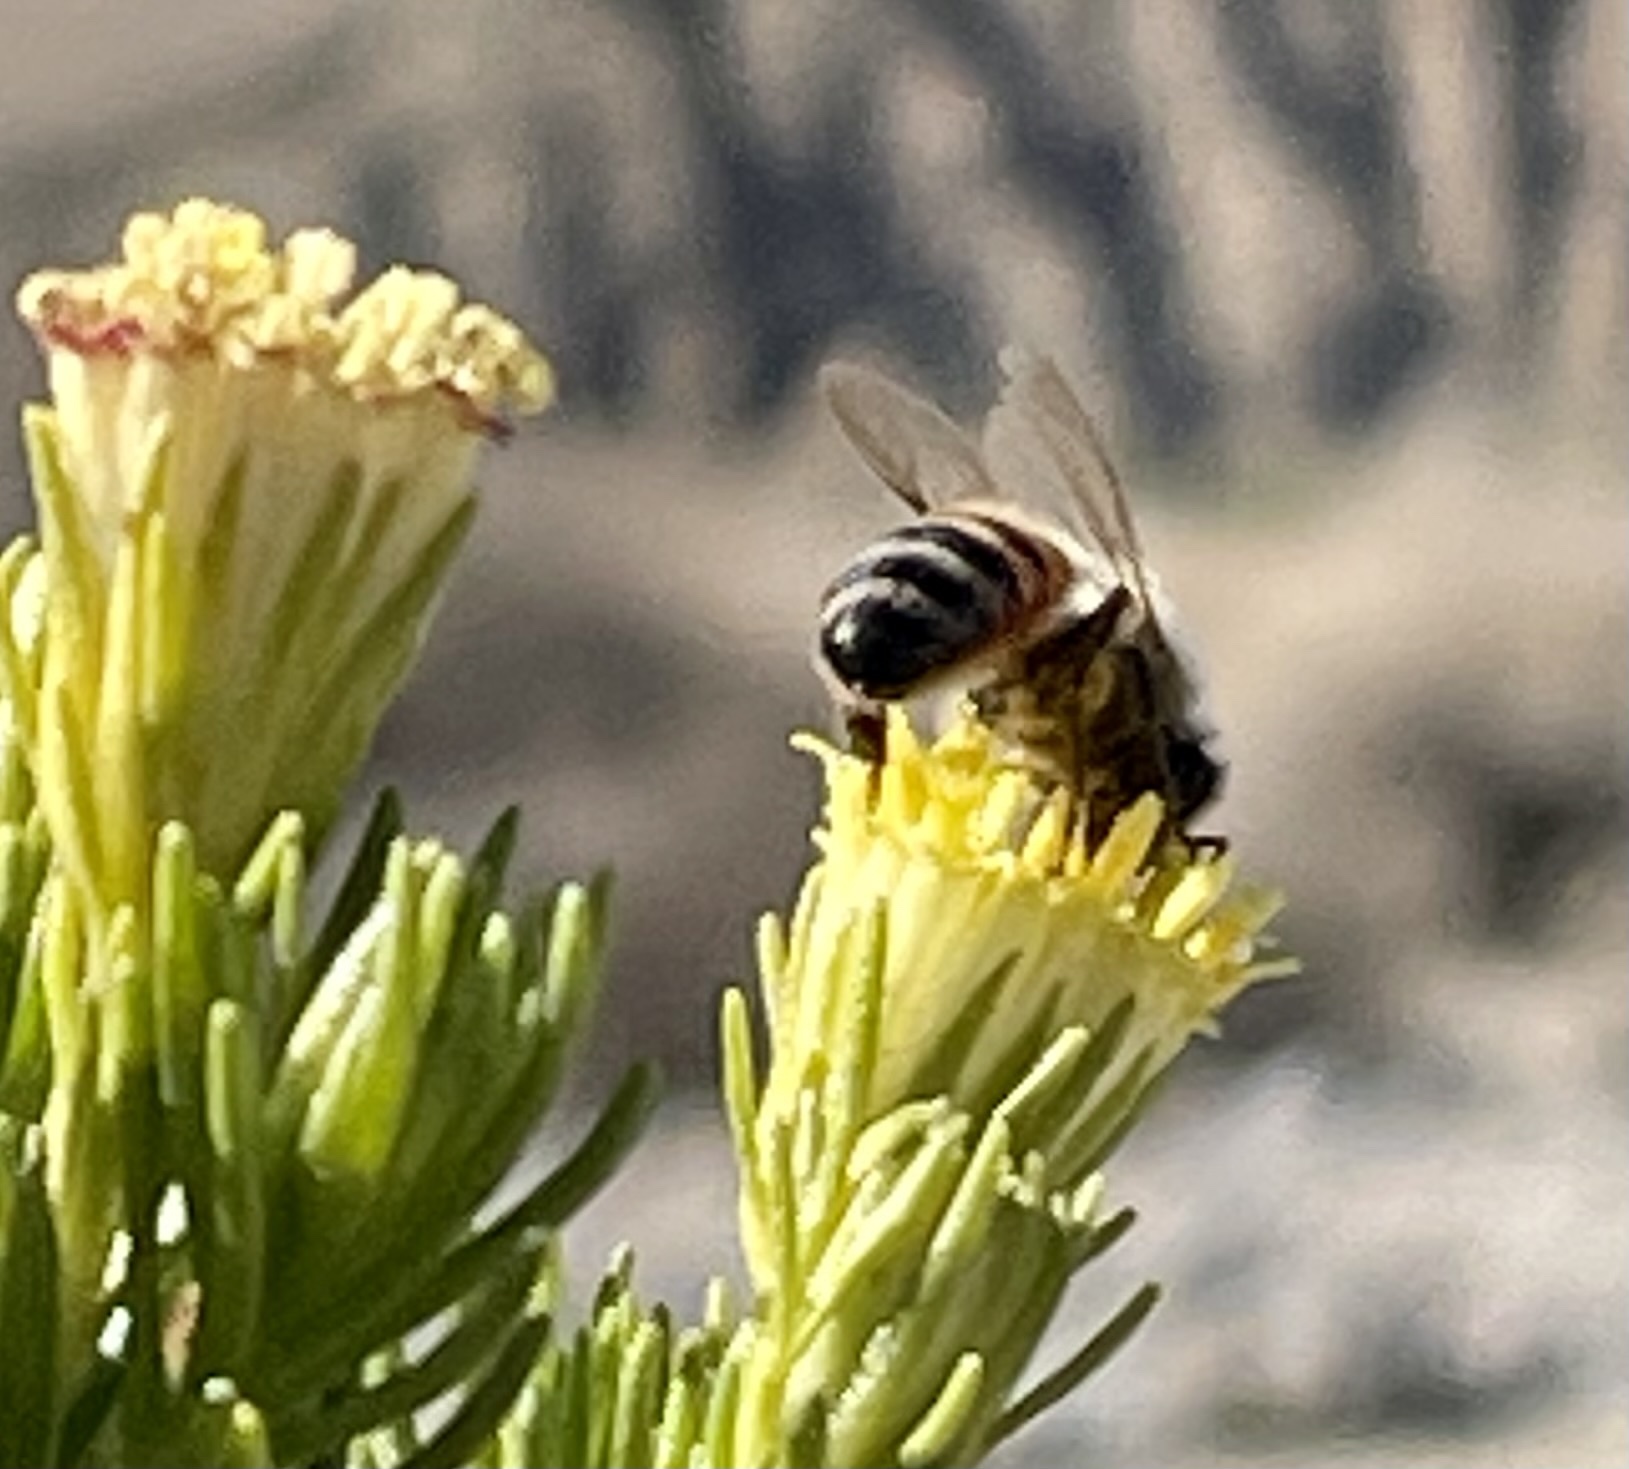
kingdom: Animalia
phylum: Arthropoda
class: Insecta
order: Hymenoptera
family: Apidae
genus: Apis
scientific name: Apis mellifera
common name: Honey bee
